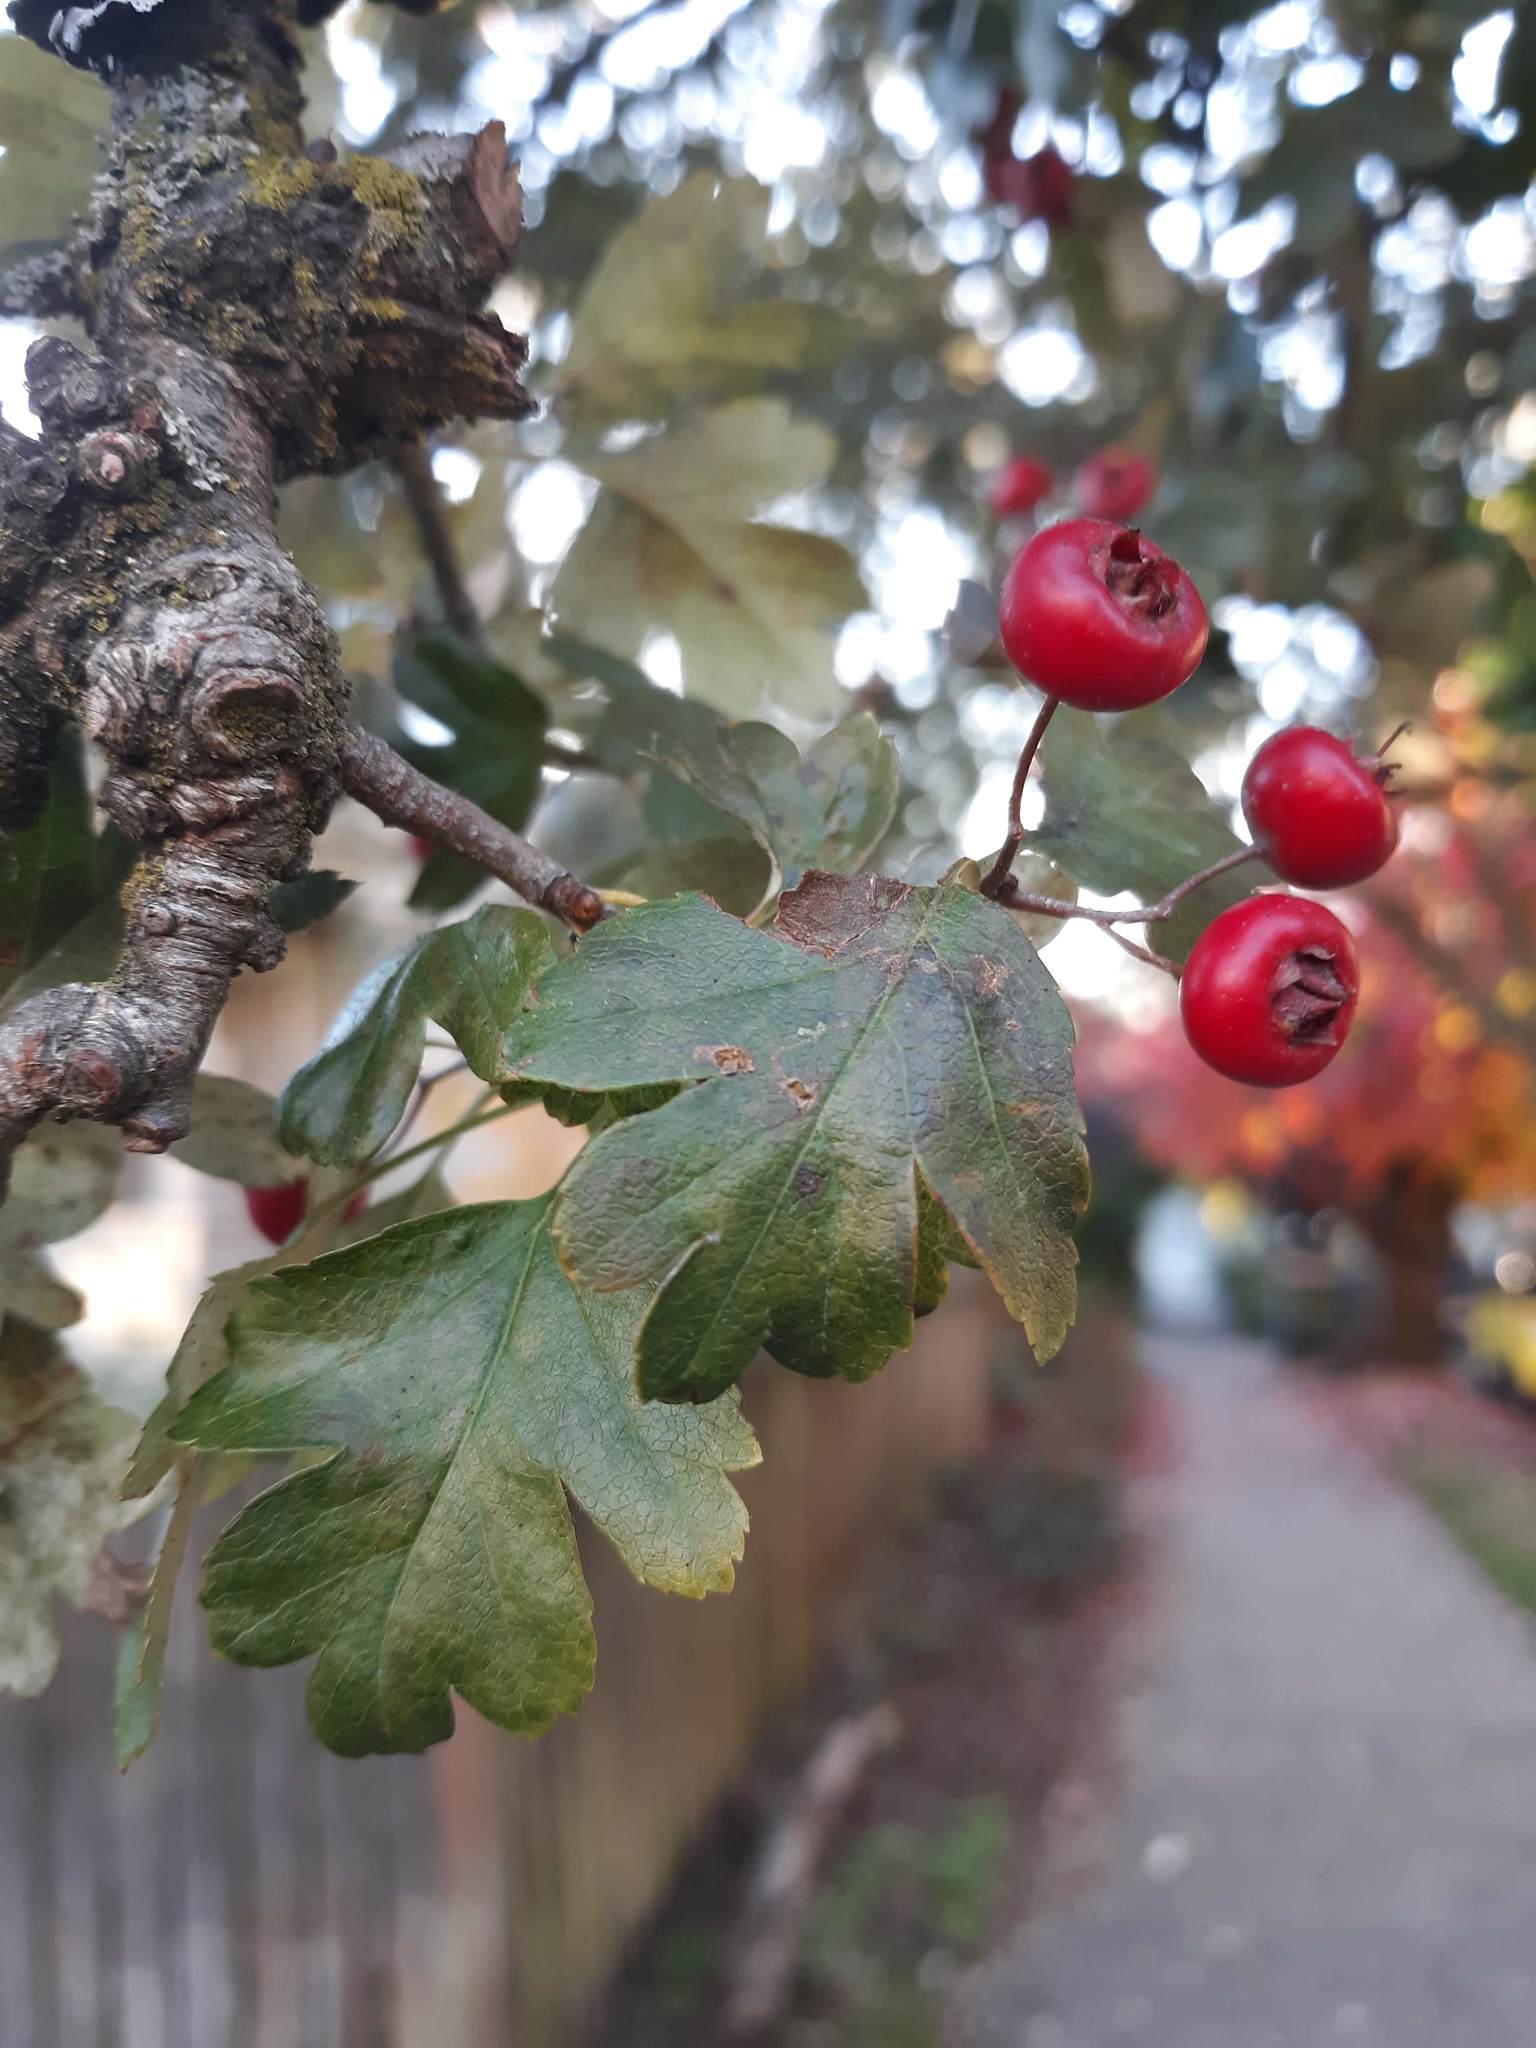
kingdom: Plantae
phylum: Tracheophyta
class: Magnoliopsida
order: Rosales
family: Rosaceae
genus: Crataegus
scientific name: Crataegus monogyna
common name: Hawthorn
